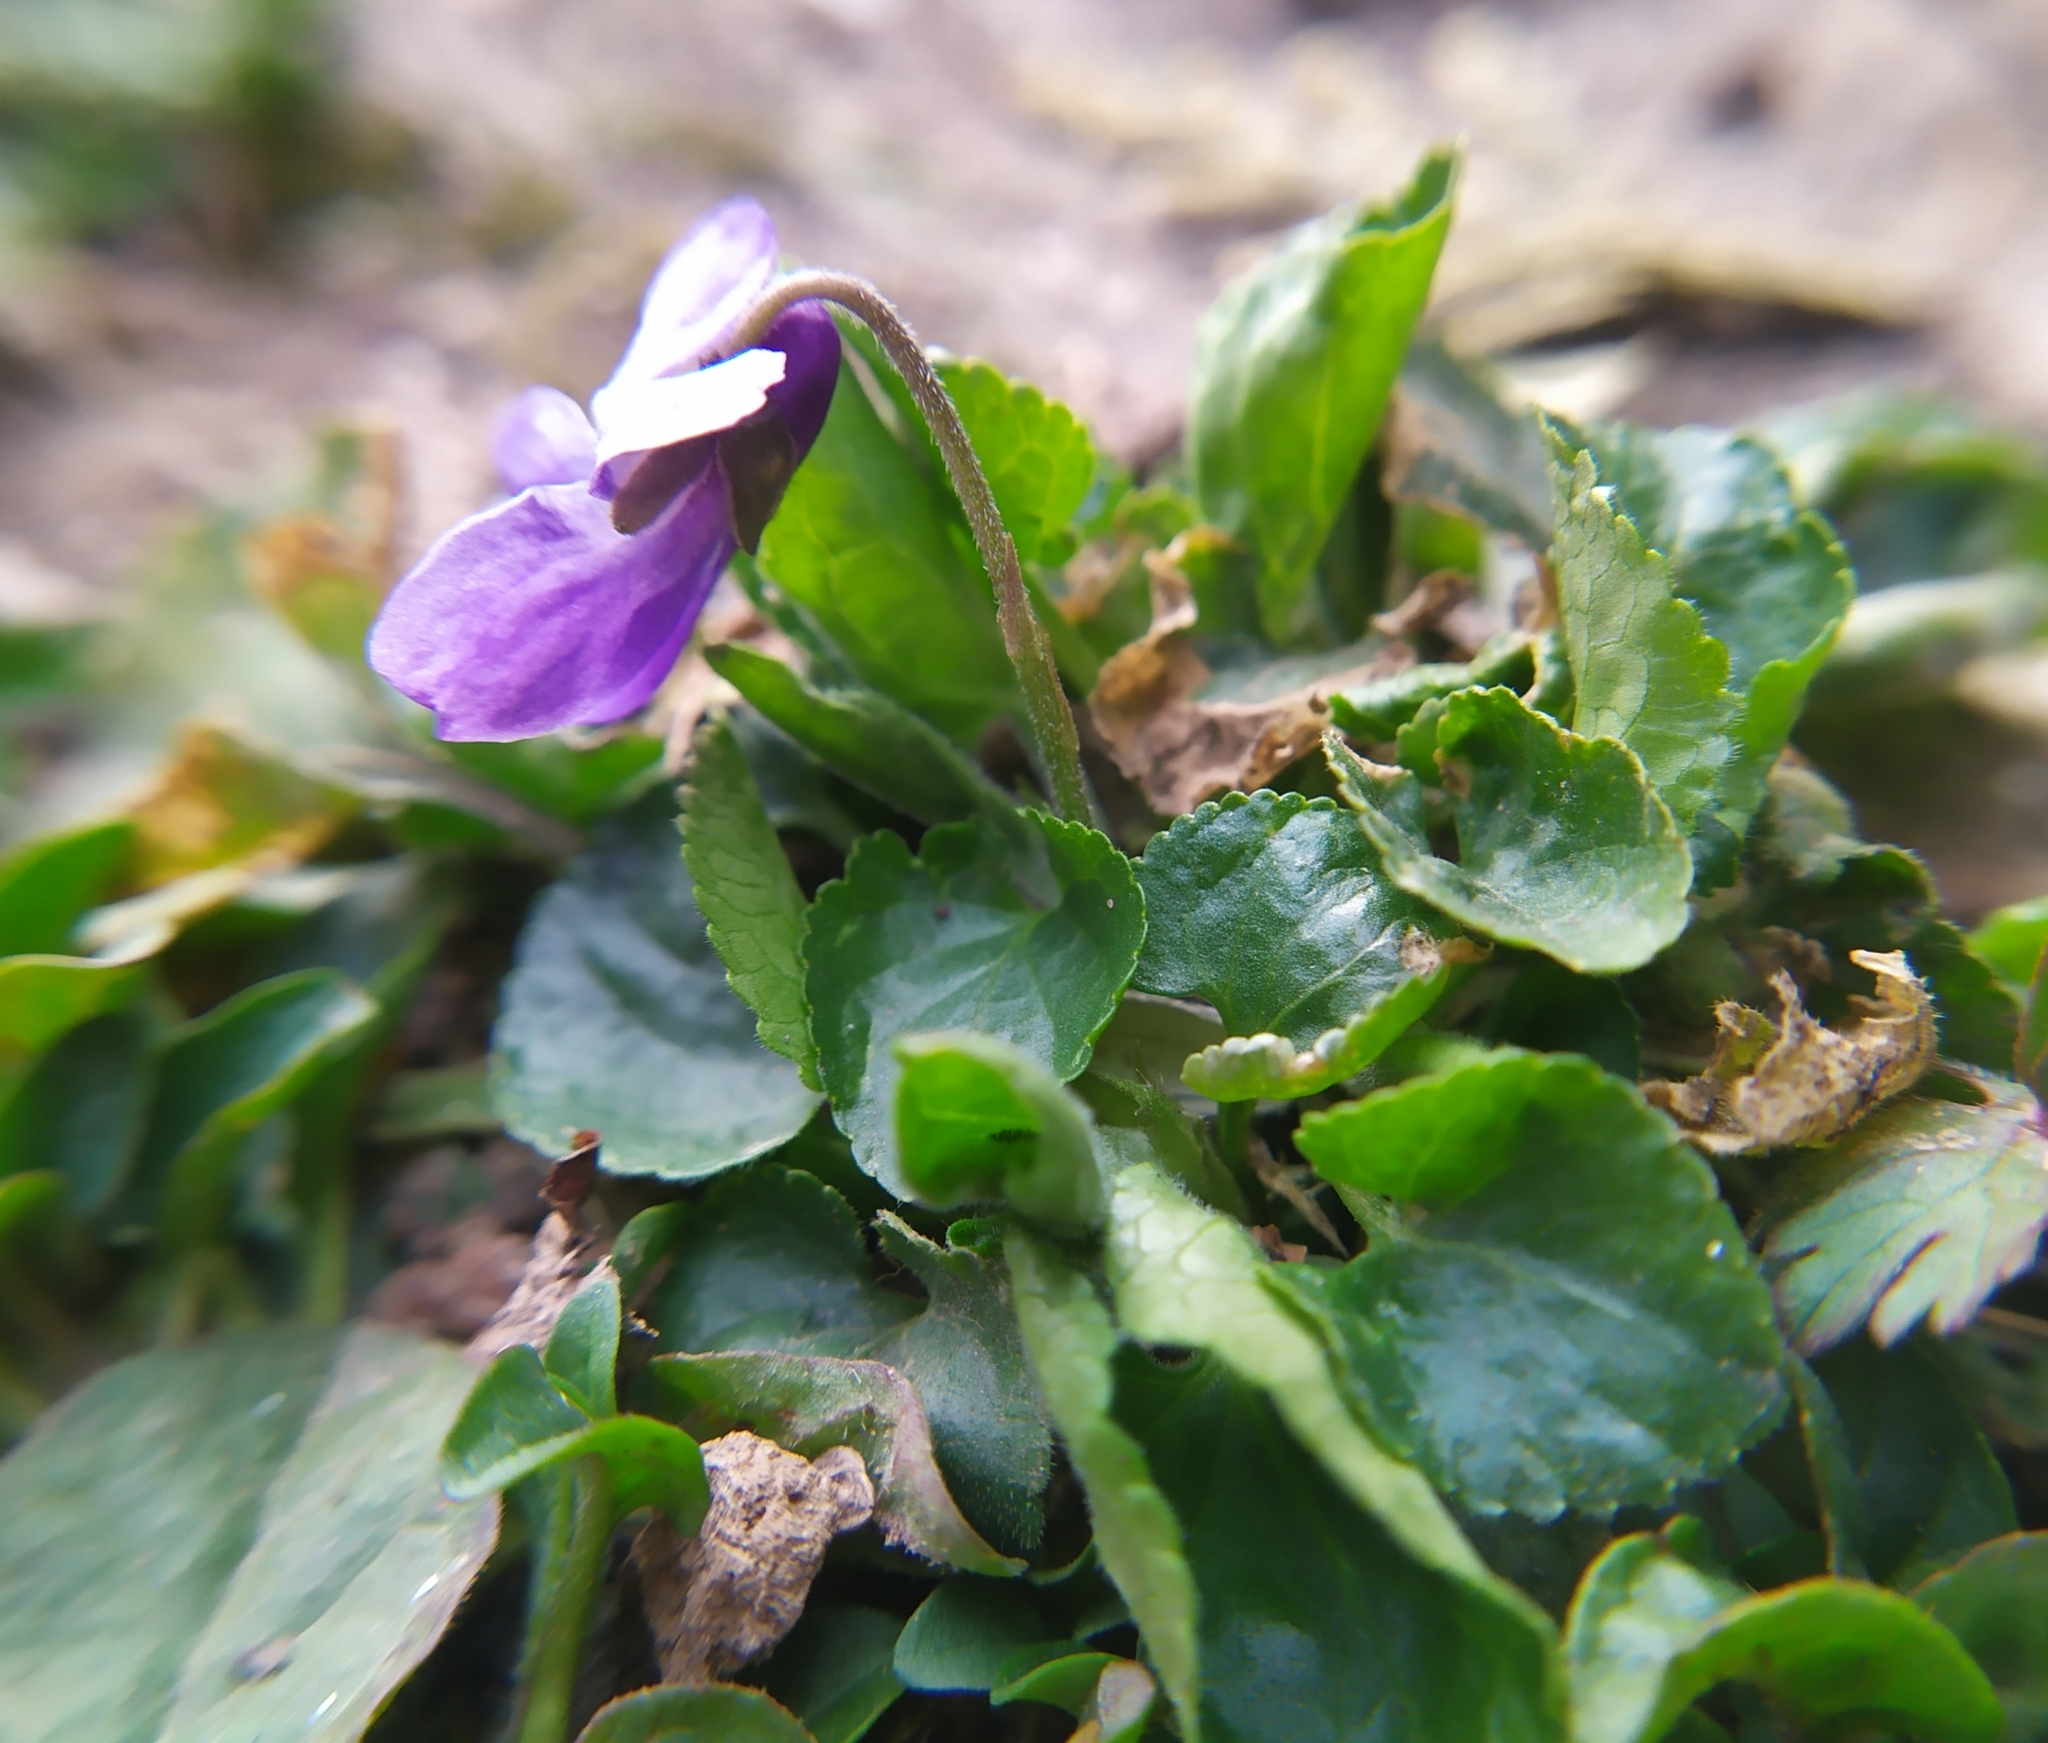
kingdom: Plantae
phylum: Tracheophyta
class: Magnoliopsida
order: Malpighiales
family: Violaceae
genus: Viola
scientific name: Viola odorata
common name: Sweet violet
